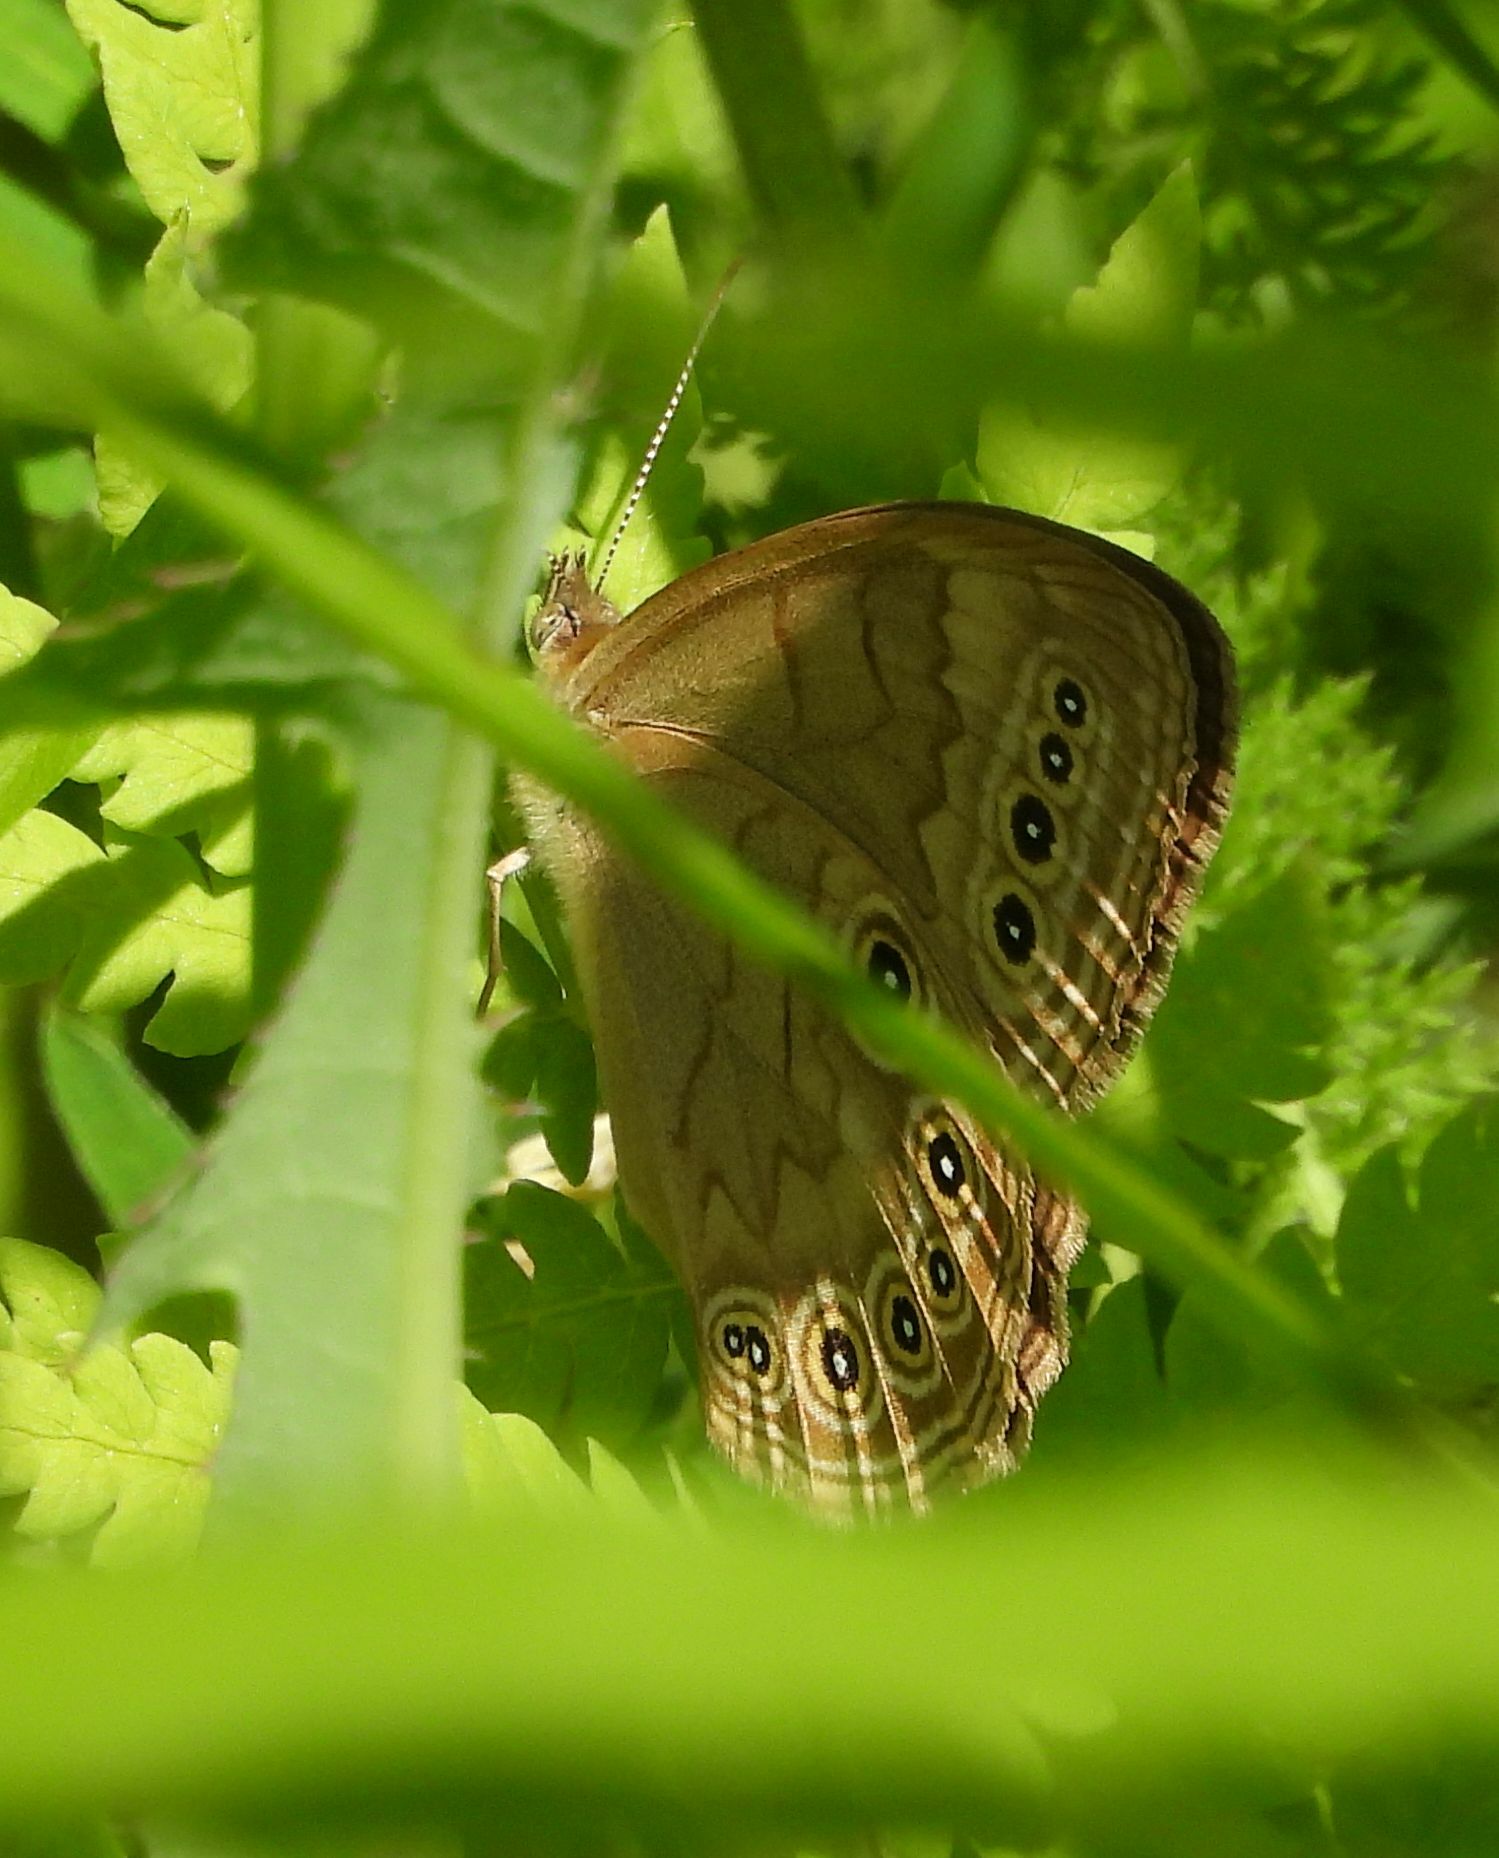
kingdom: Animalia
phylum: Arthropoda
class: Insecta
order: Lepidoptera
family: Nymphalidae
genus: Lethe
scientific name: Lethe eurydice
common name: Eyed brown
